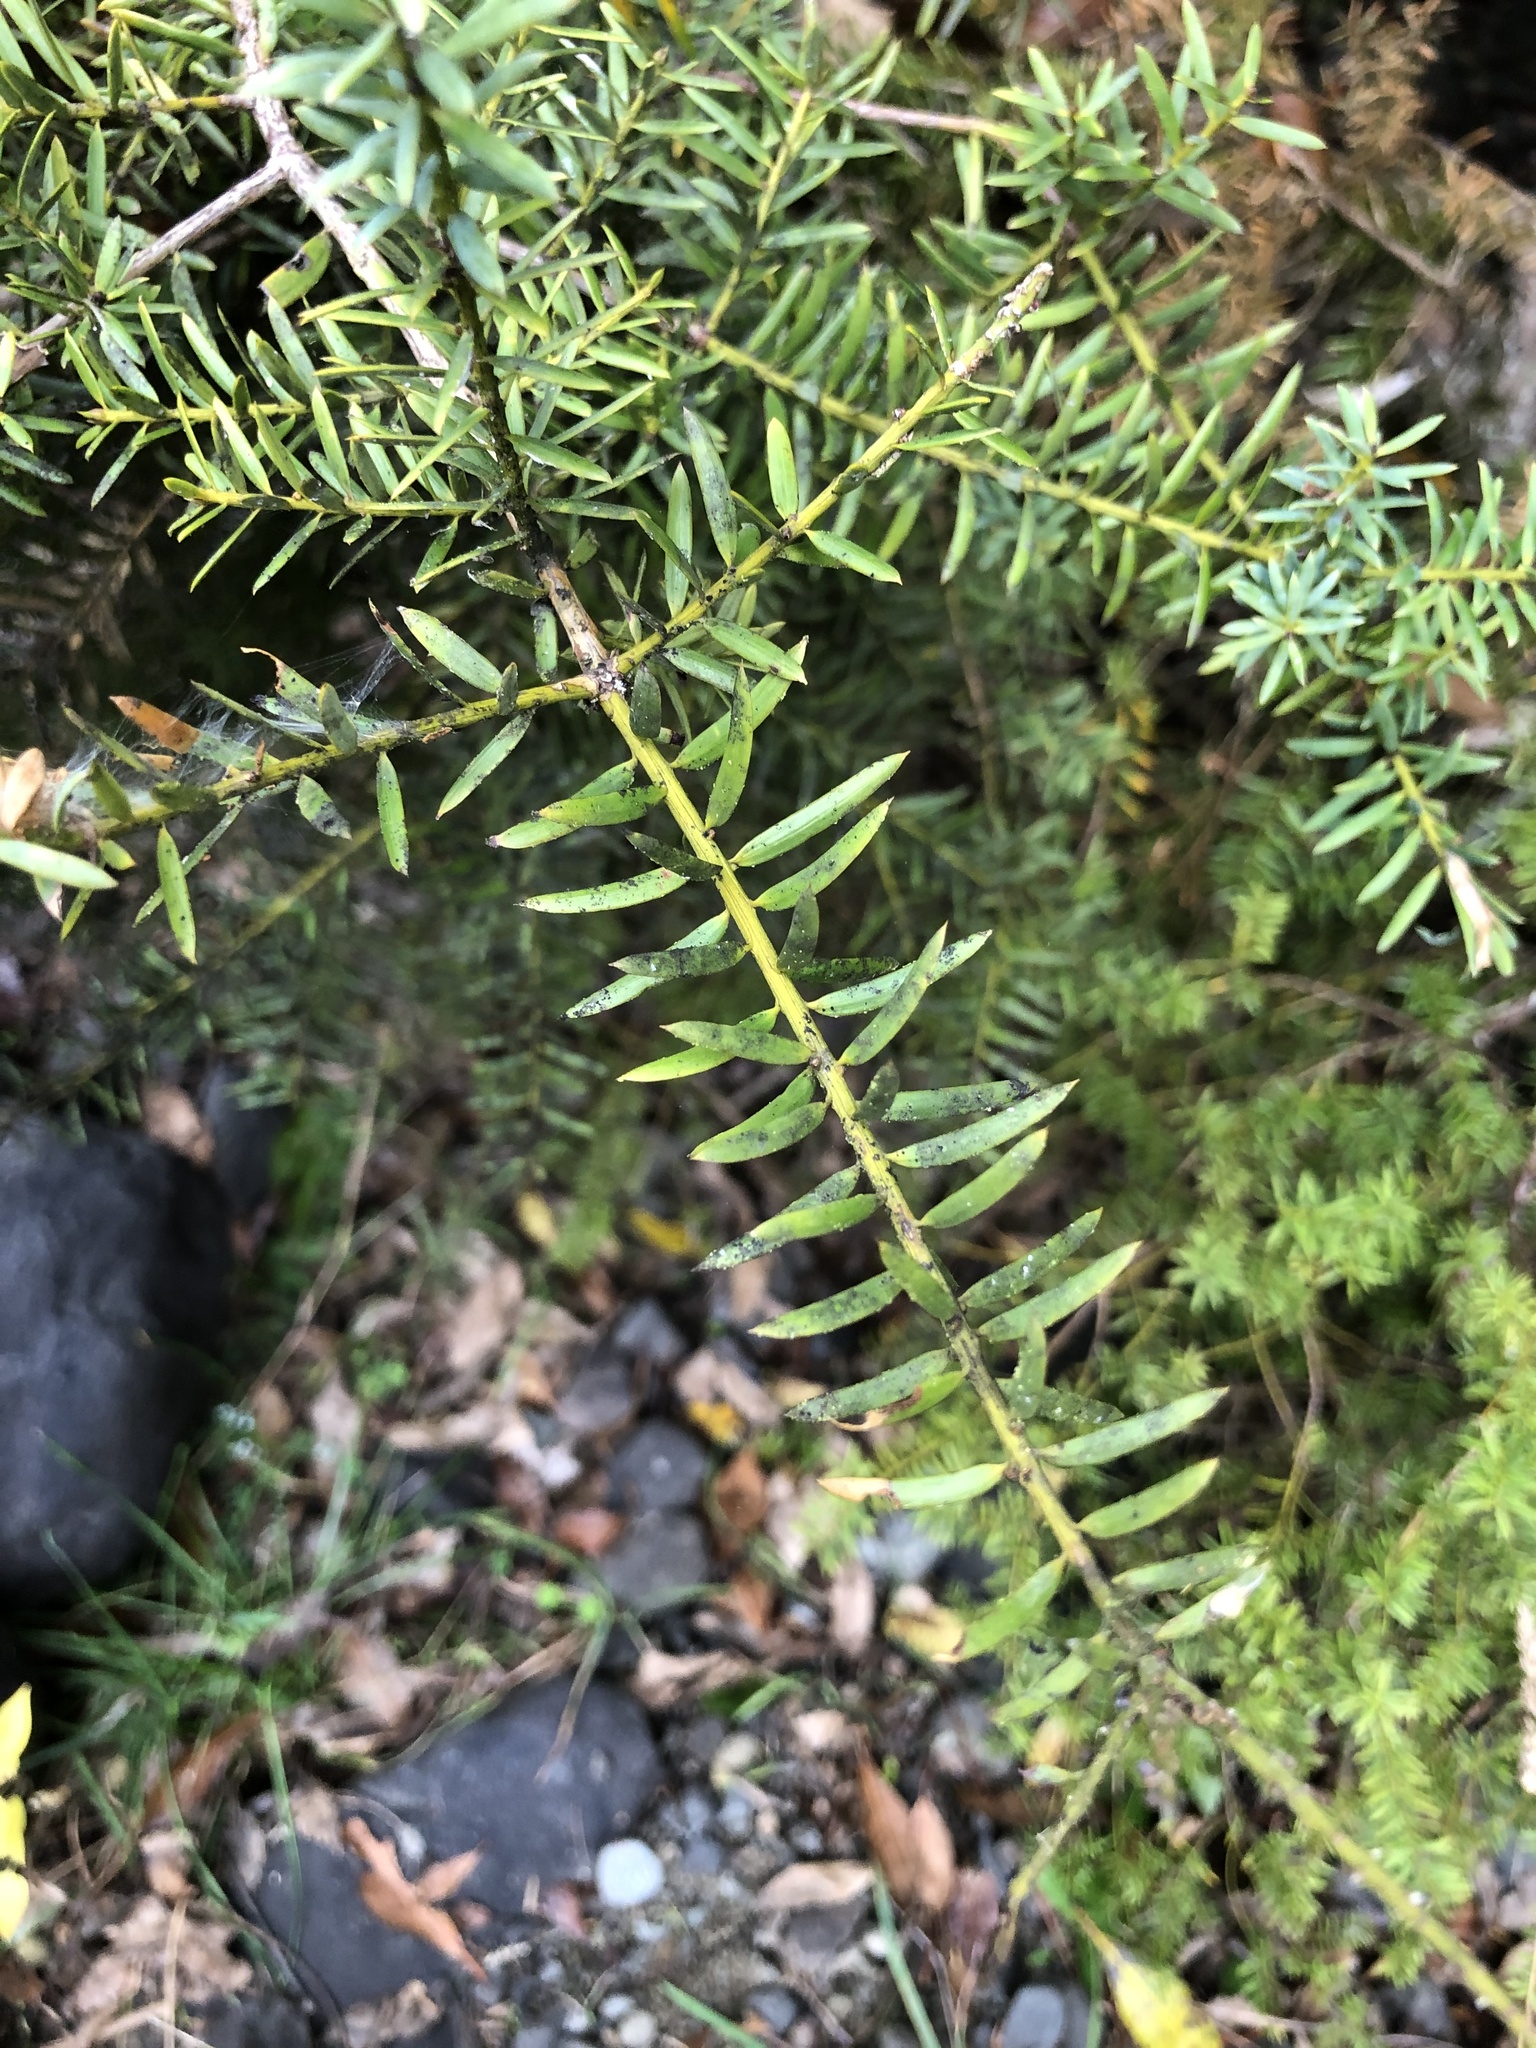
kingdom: Plantae
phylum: Tracheophyta
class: Pinopsida
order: Pinales
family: Podocarpaceae
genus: Podocarpus
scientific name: Podocarpus totara
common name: Totara
